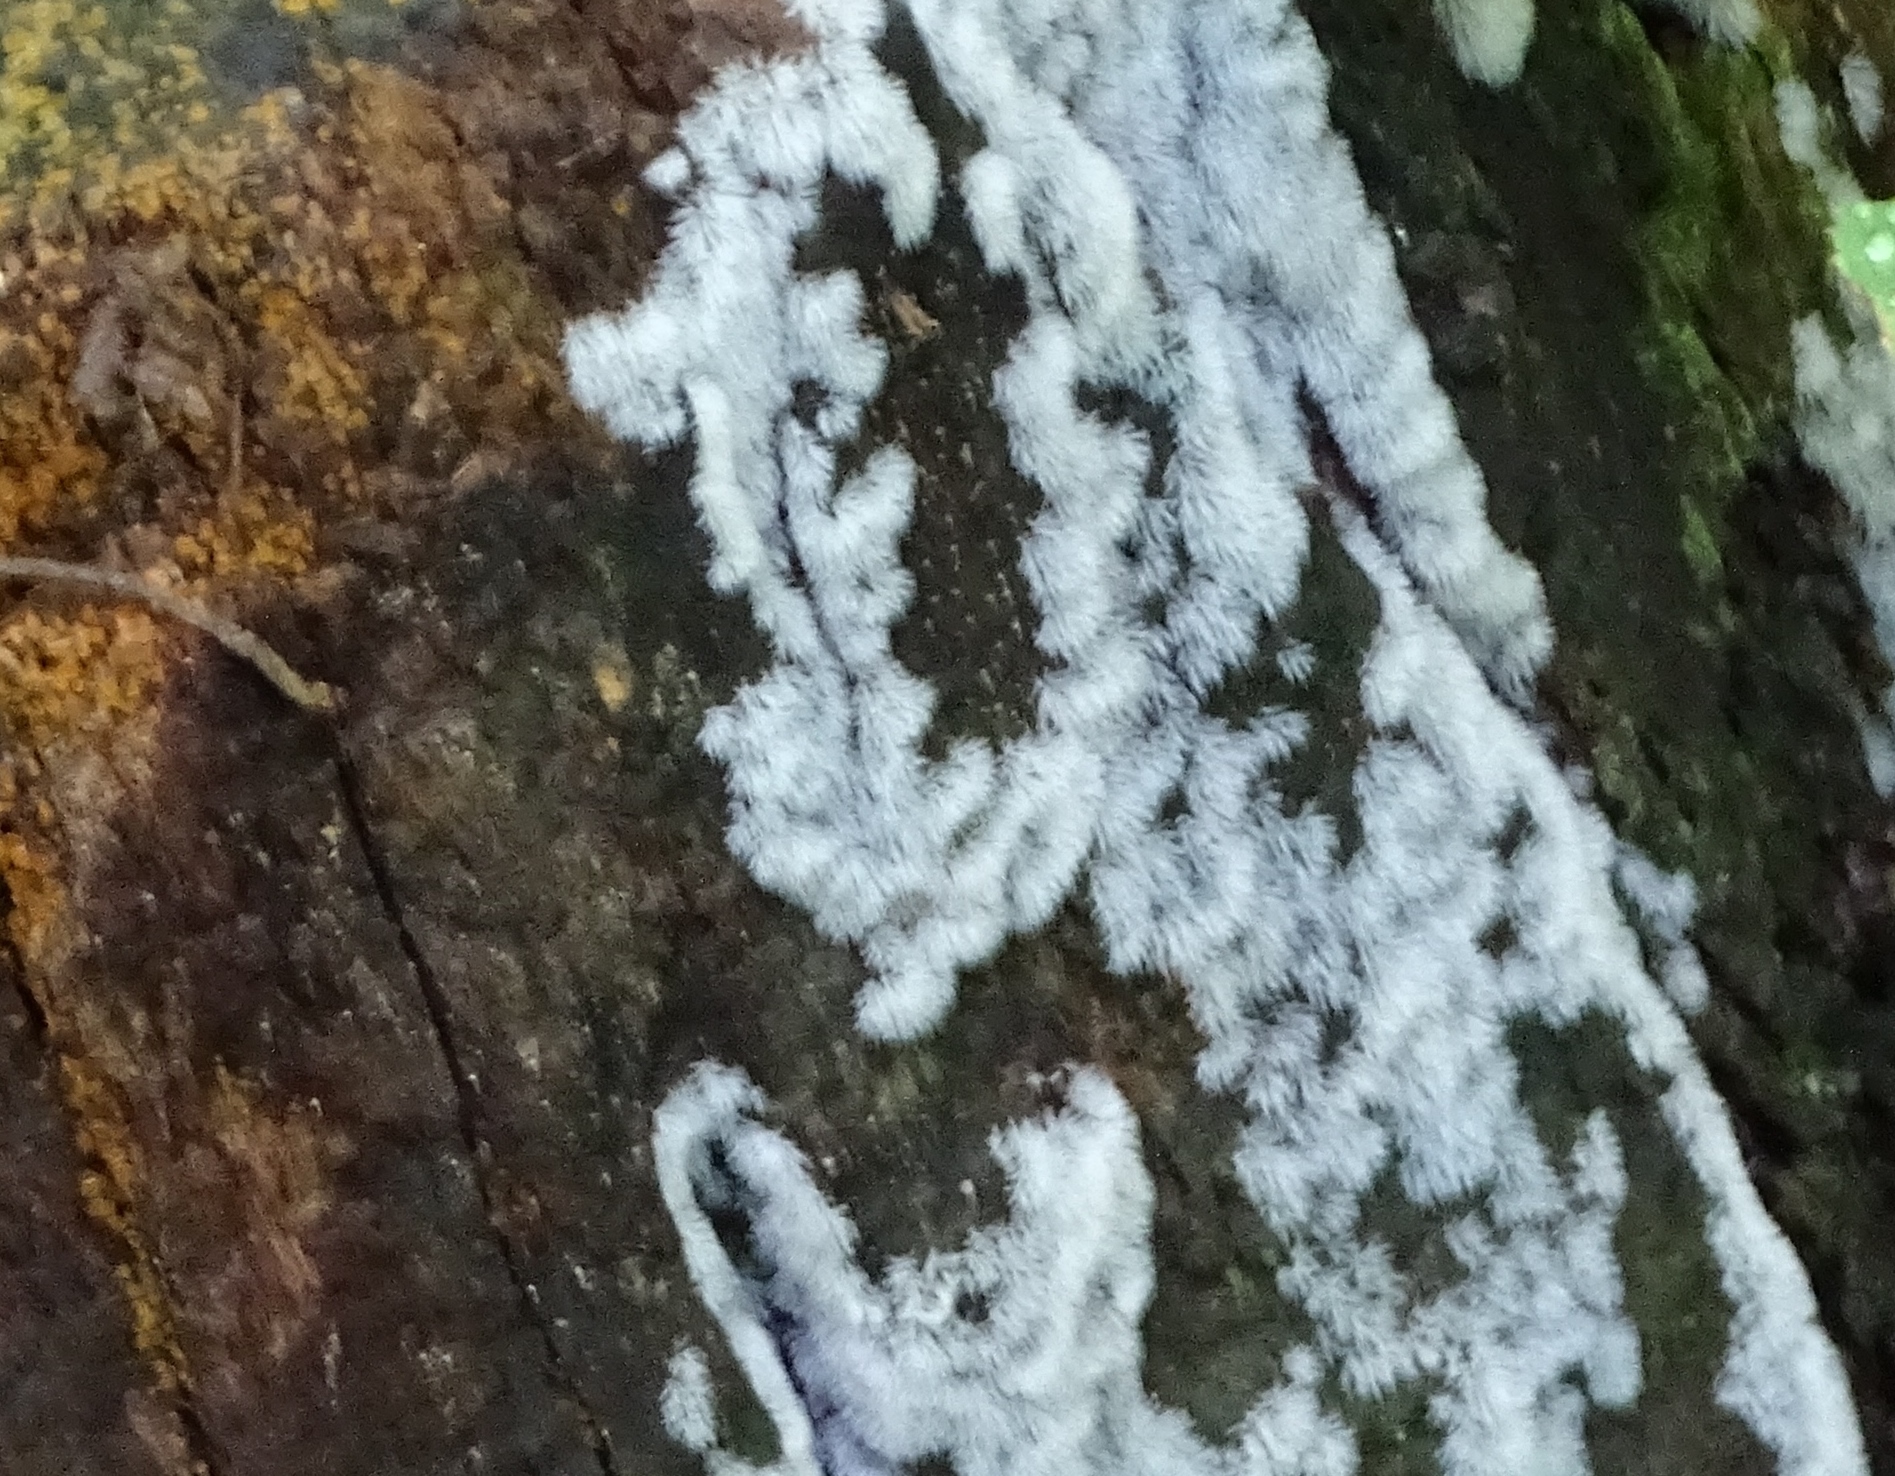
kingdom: Protozoa
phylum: Mycetozoa
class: Protosteliomycetes
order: Ceratiomyxales
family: Ceratiomyxaceae
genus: Ceratiomyxa
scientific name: Ceratiomyxa fruticulosa
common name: Honeycomb coral slime mold
